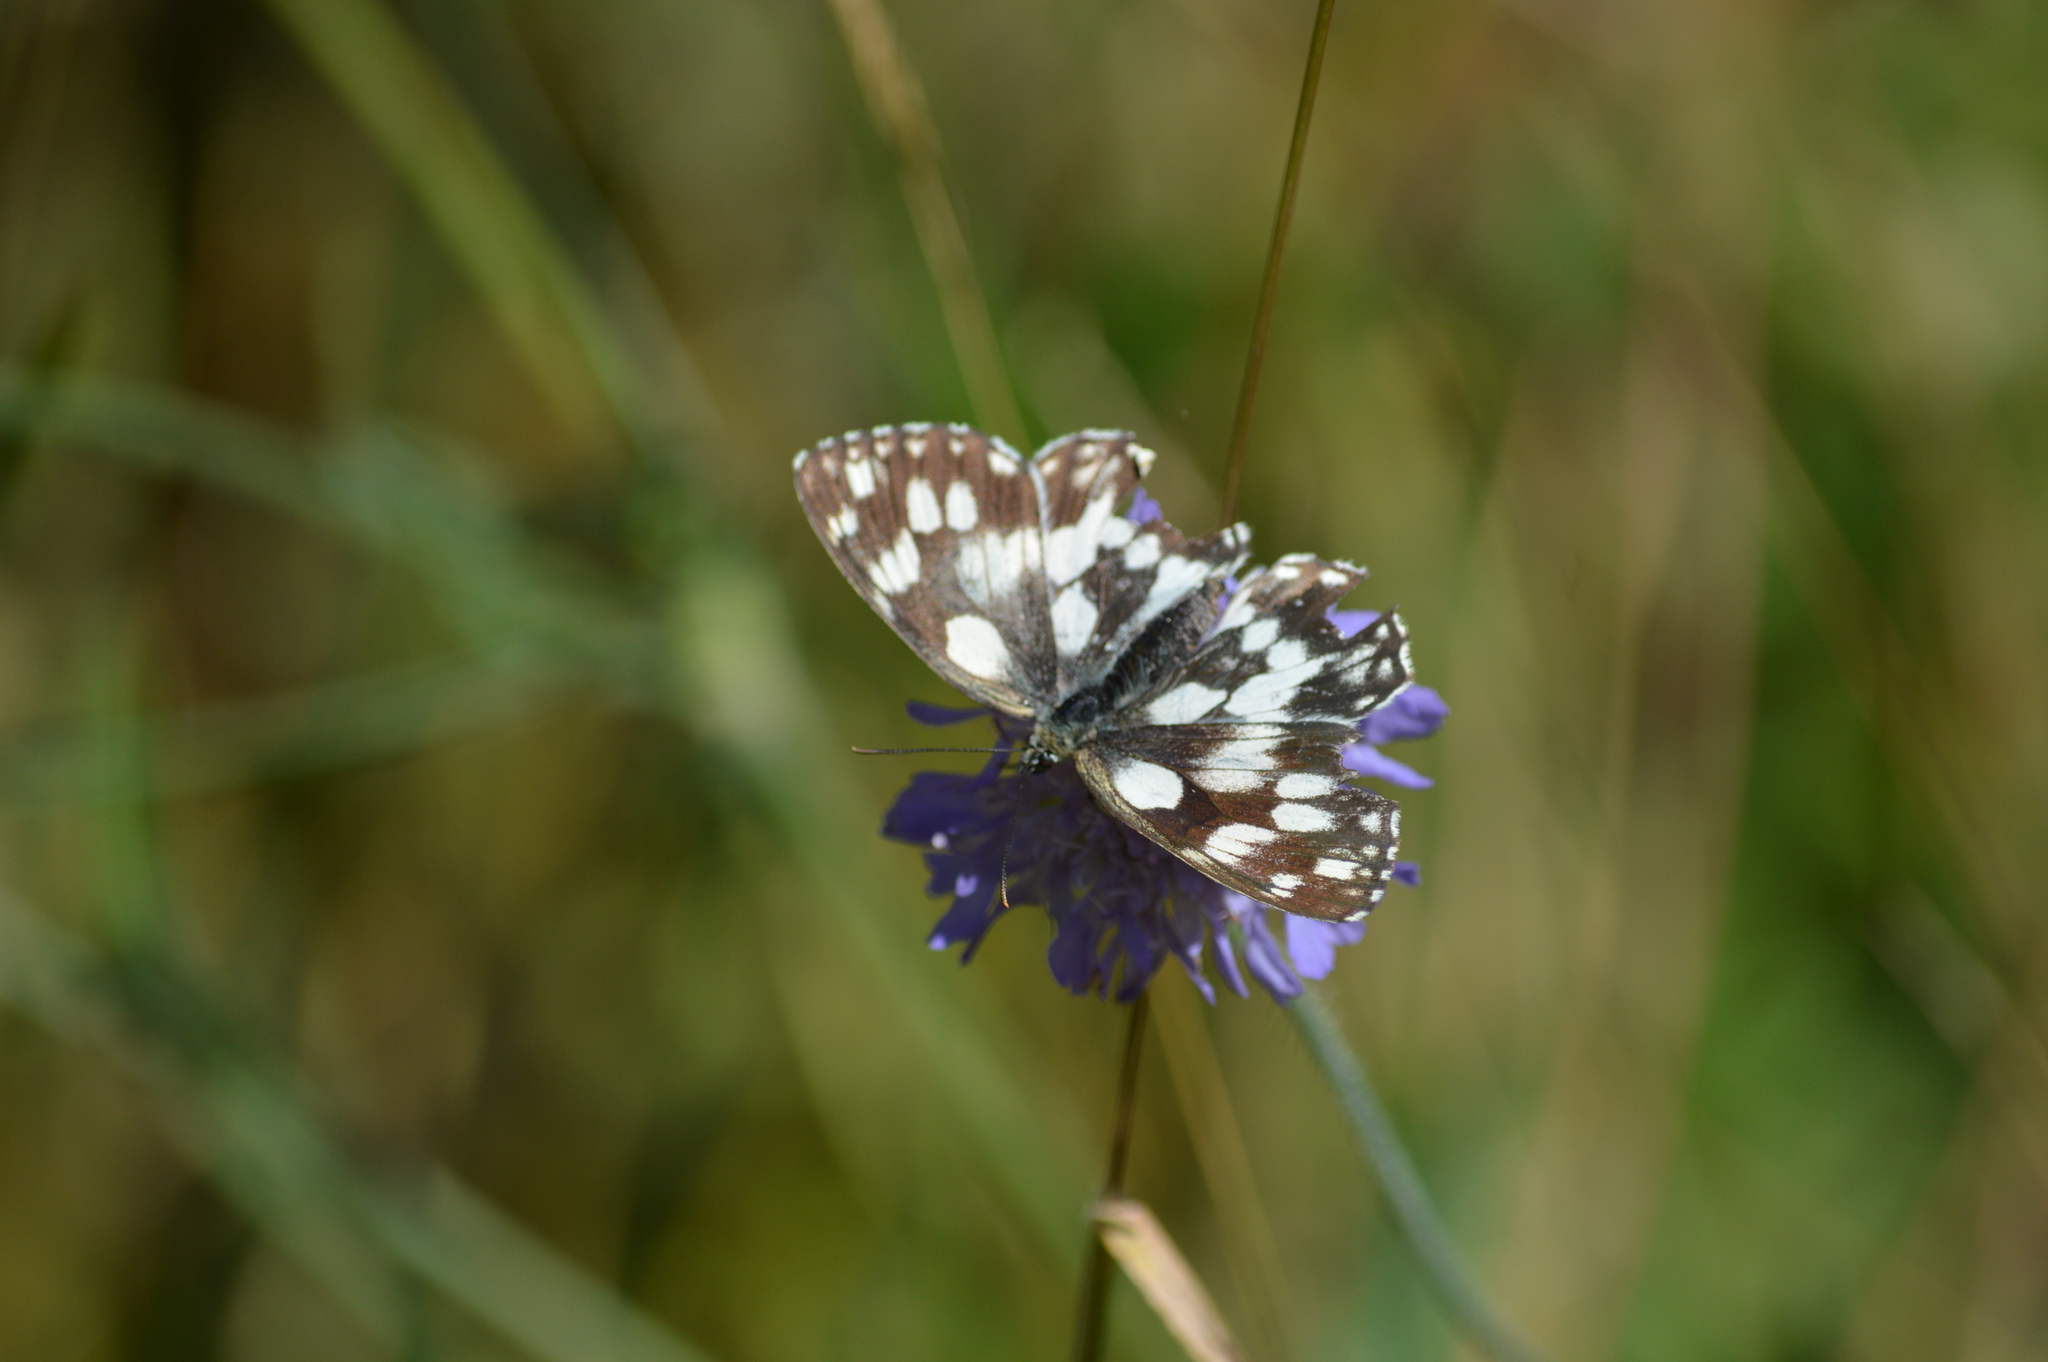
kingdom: Animalia
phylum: Arthropoda
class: Insecta
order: Lepidoptera
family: Nymphalidae
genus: Melanargia
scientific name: Melanargia galathea
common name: Marbled white
